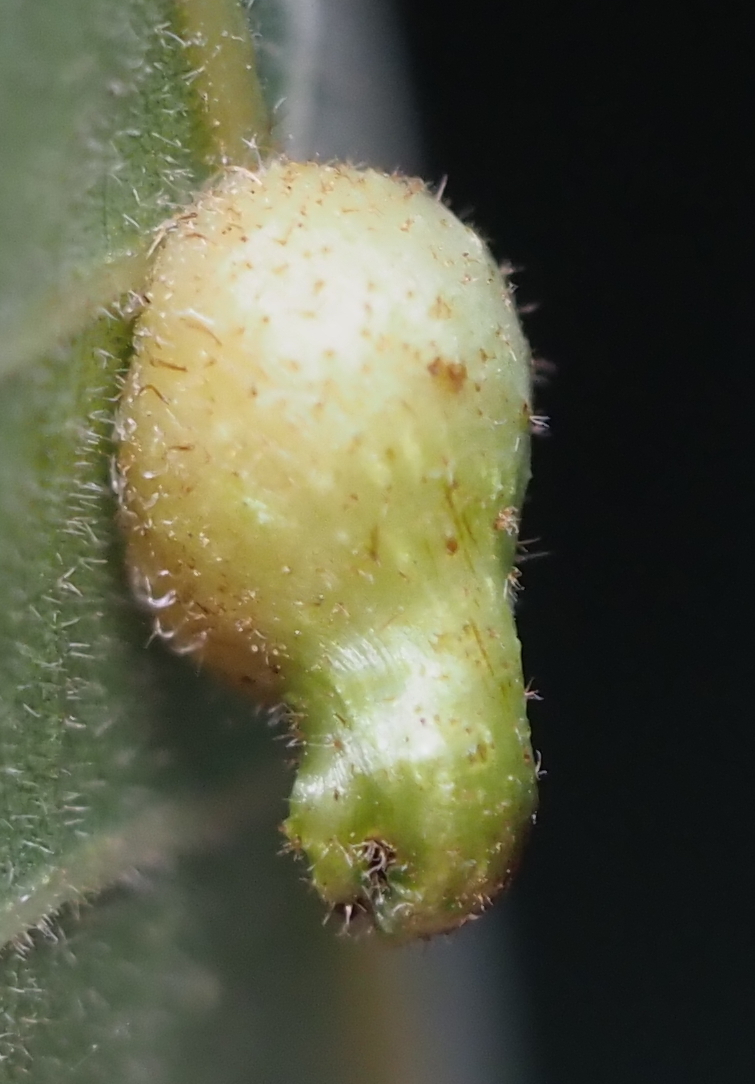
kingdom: Animalia
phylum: Arthropoda
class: Insecta
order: Diptera
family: Cecidomyiidae
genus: Caryomyia
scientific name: Caryomyia ansericollum
